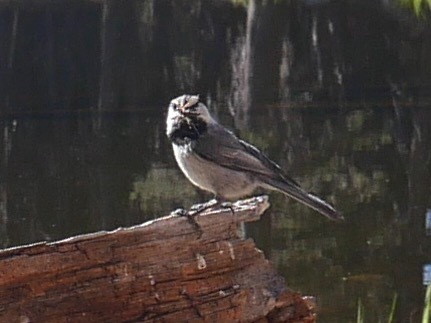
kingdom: Animalia
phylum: Chordata
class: Aves
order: Passeriformes
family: Paridae
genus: Poecile
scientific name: Poecile gambeli
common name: Mountain chickadee
